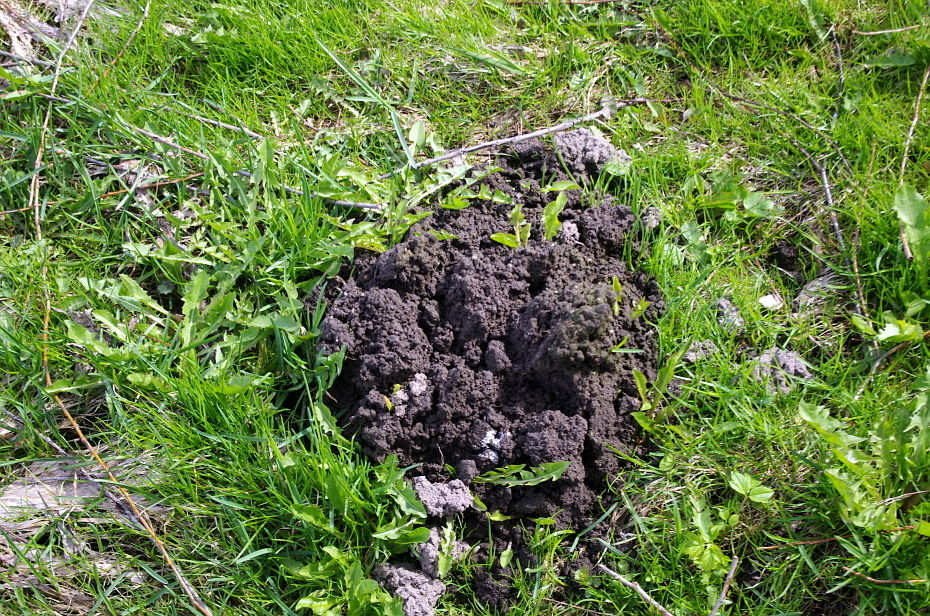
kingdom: Animalia
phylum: Chordata
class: Mammalia
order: Soricomorpha
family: Talpidae
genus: Talpa
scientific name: Talpa europaea
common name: European mole
